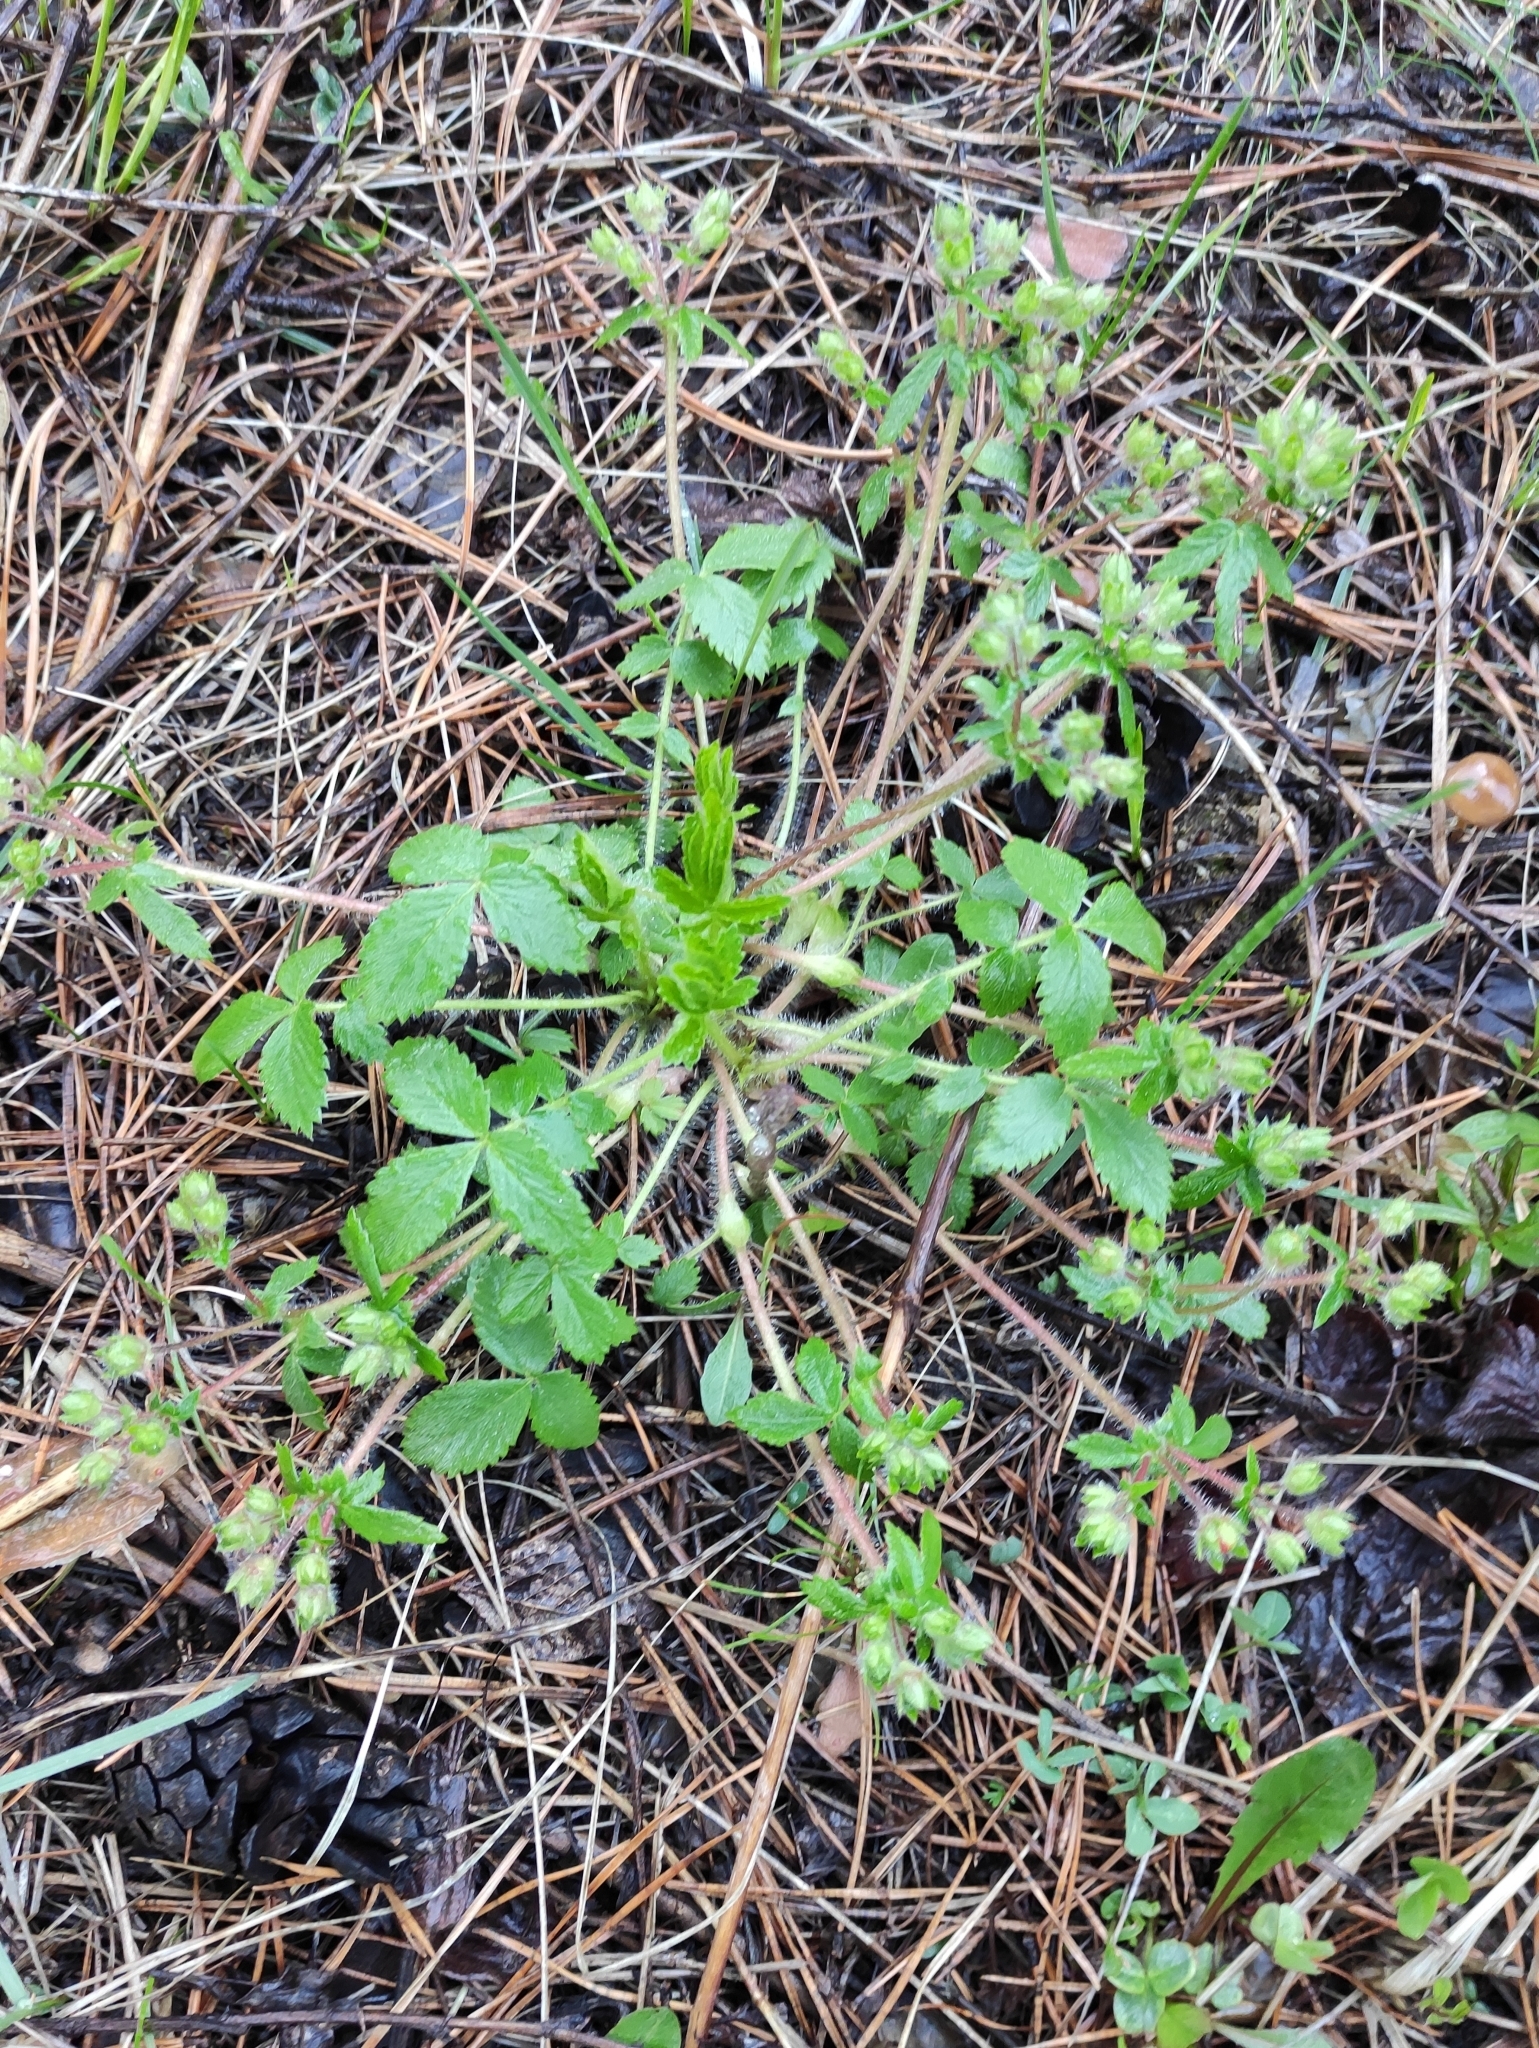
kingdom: Plantae
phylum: Tracheophyta
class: Magnoliopsida
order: Rosales
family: Rosaceae
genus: Potentilla
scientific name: Potentilla fragarioides
